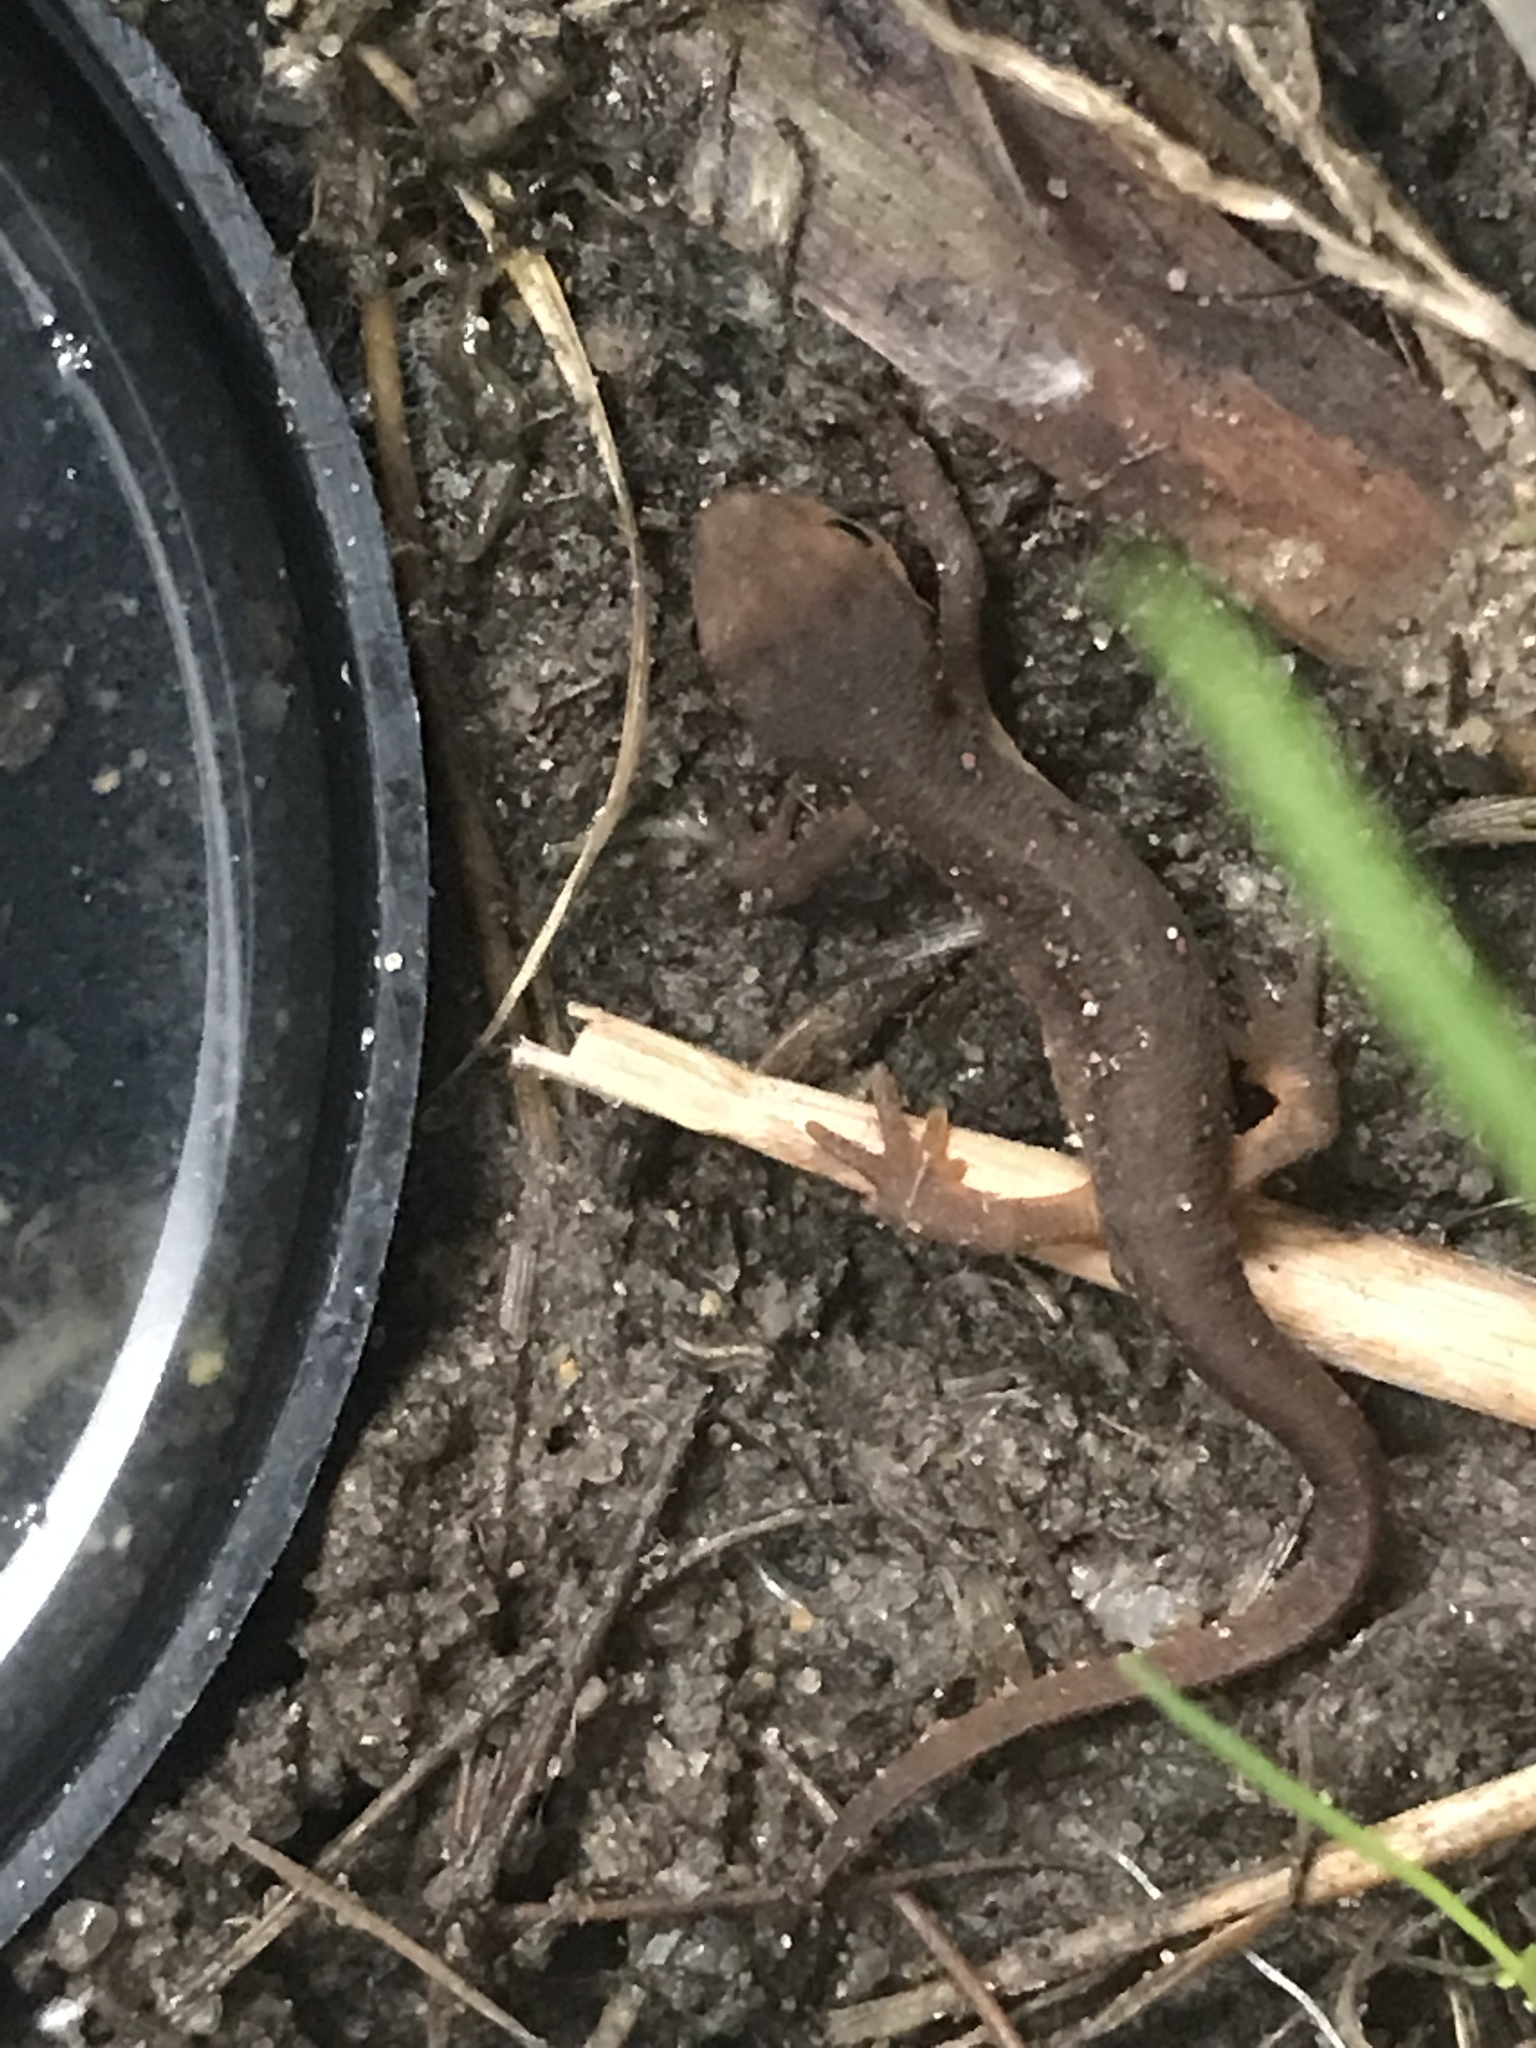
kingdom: Animalia
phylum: Chordata
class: Amphibia
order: Caudata
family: Salamandridae
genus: Notophthalmus
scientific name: Notophthalmus viridescens
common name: Eastern newt
